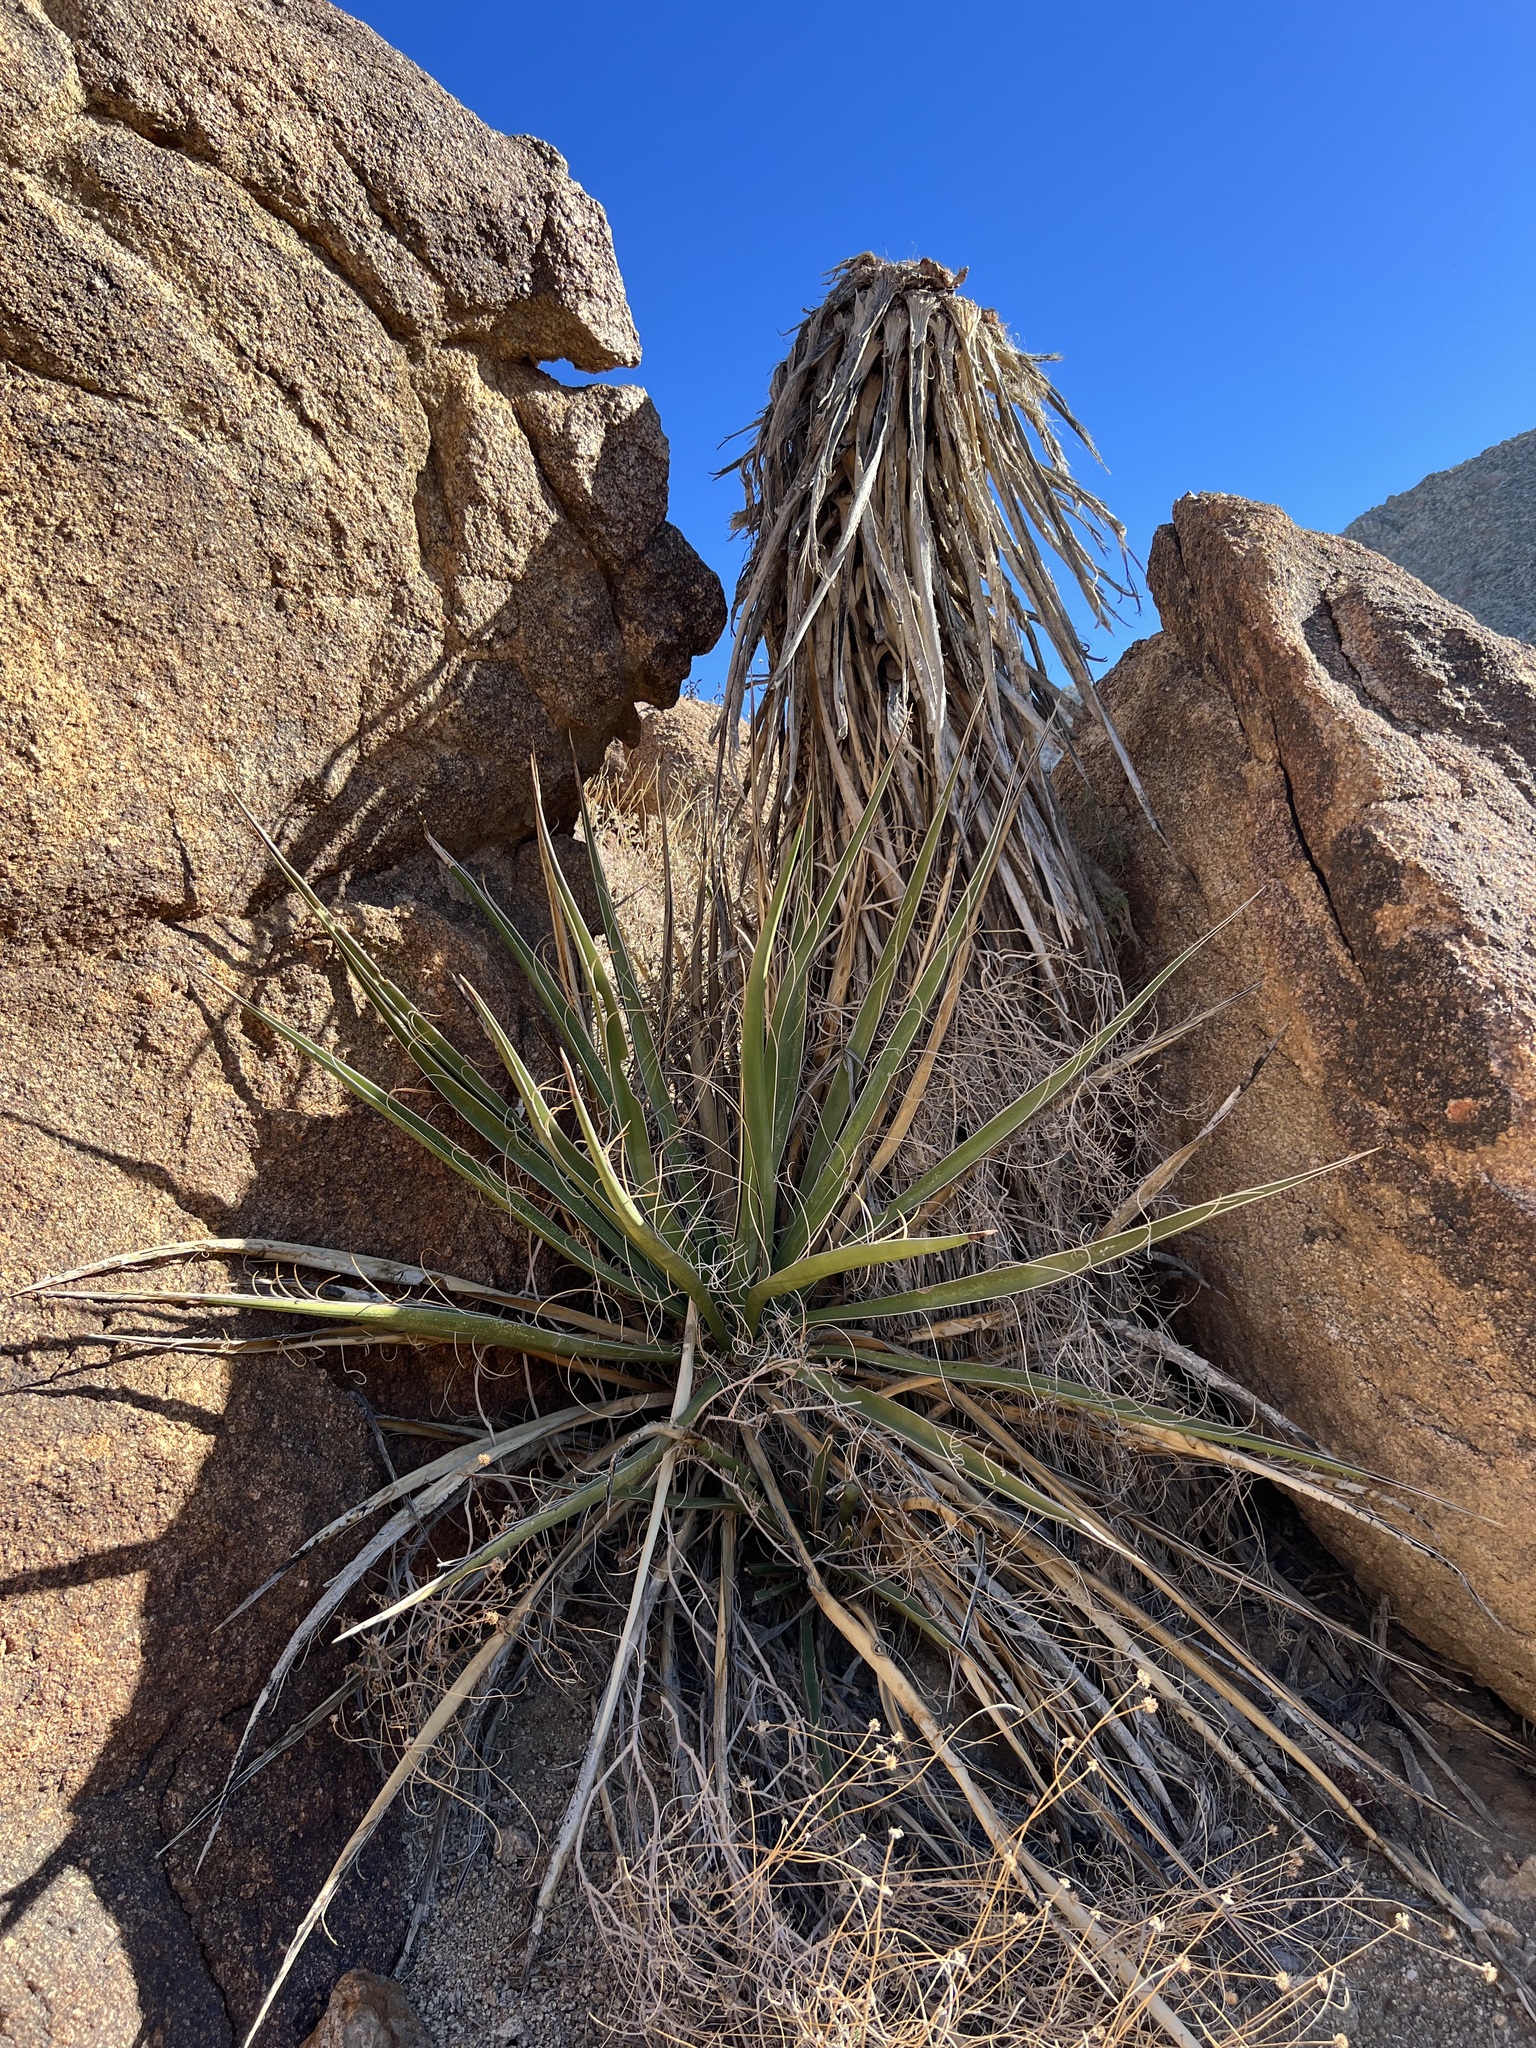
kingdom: Plantae
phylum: Tracheophyta
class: Liliopsida
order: Asparagales
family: Asparagaceae
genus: Yucca
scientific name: Yucca schidigera
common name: Mojave yucca
